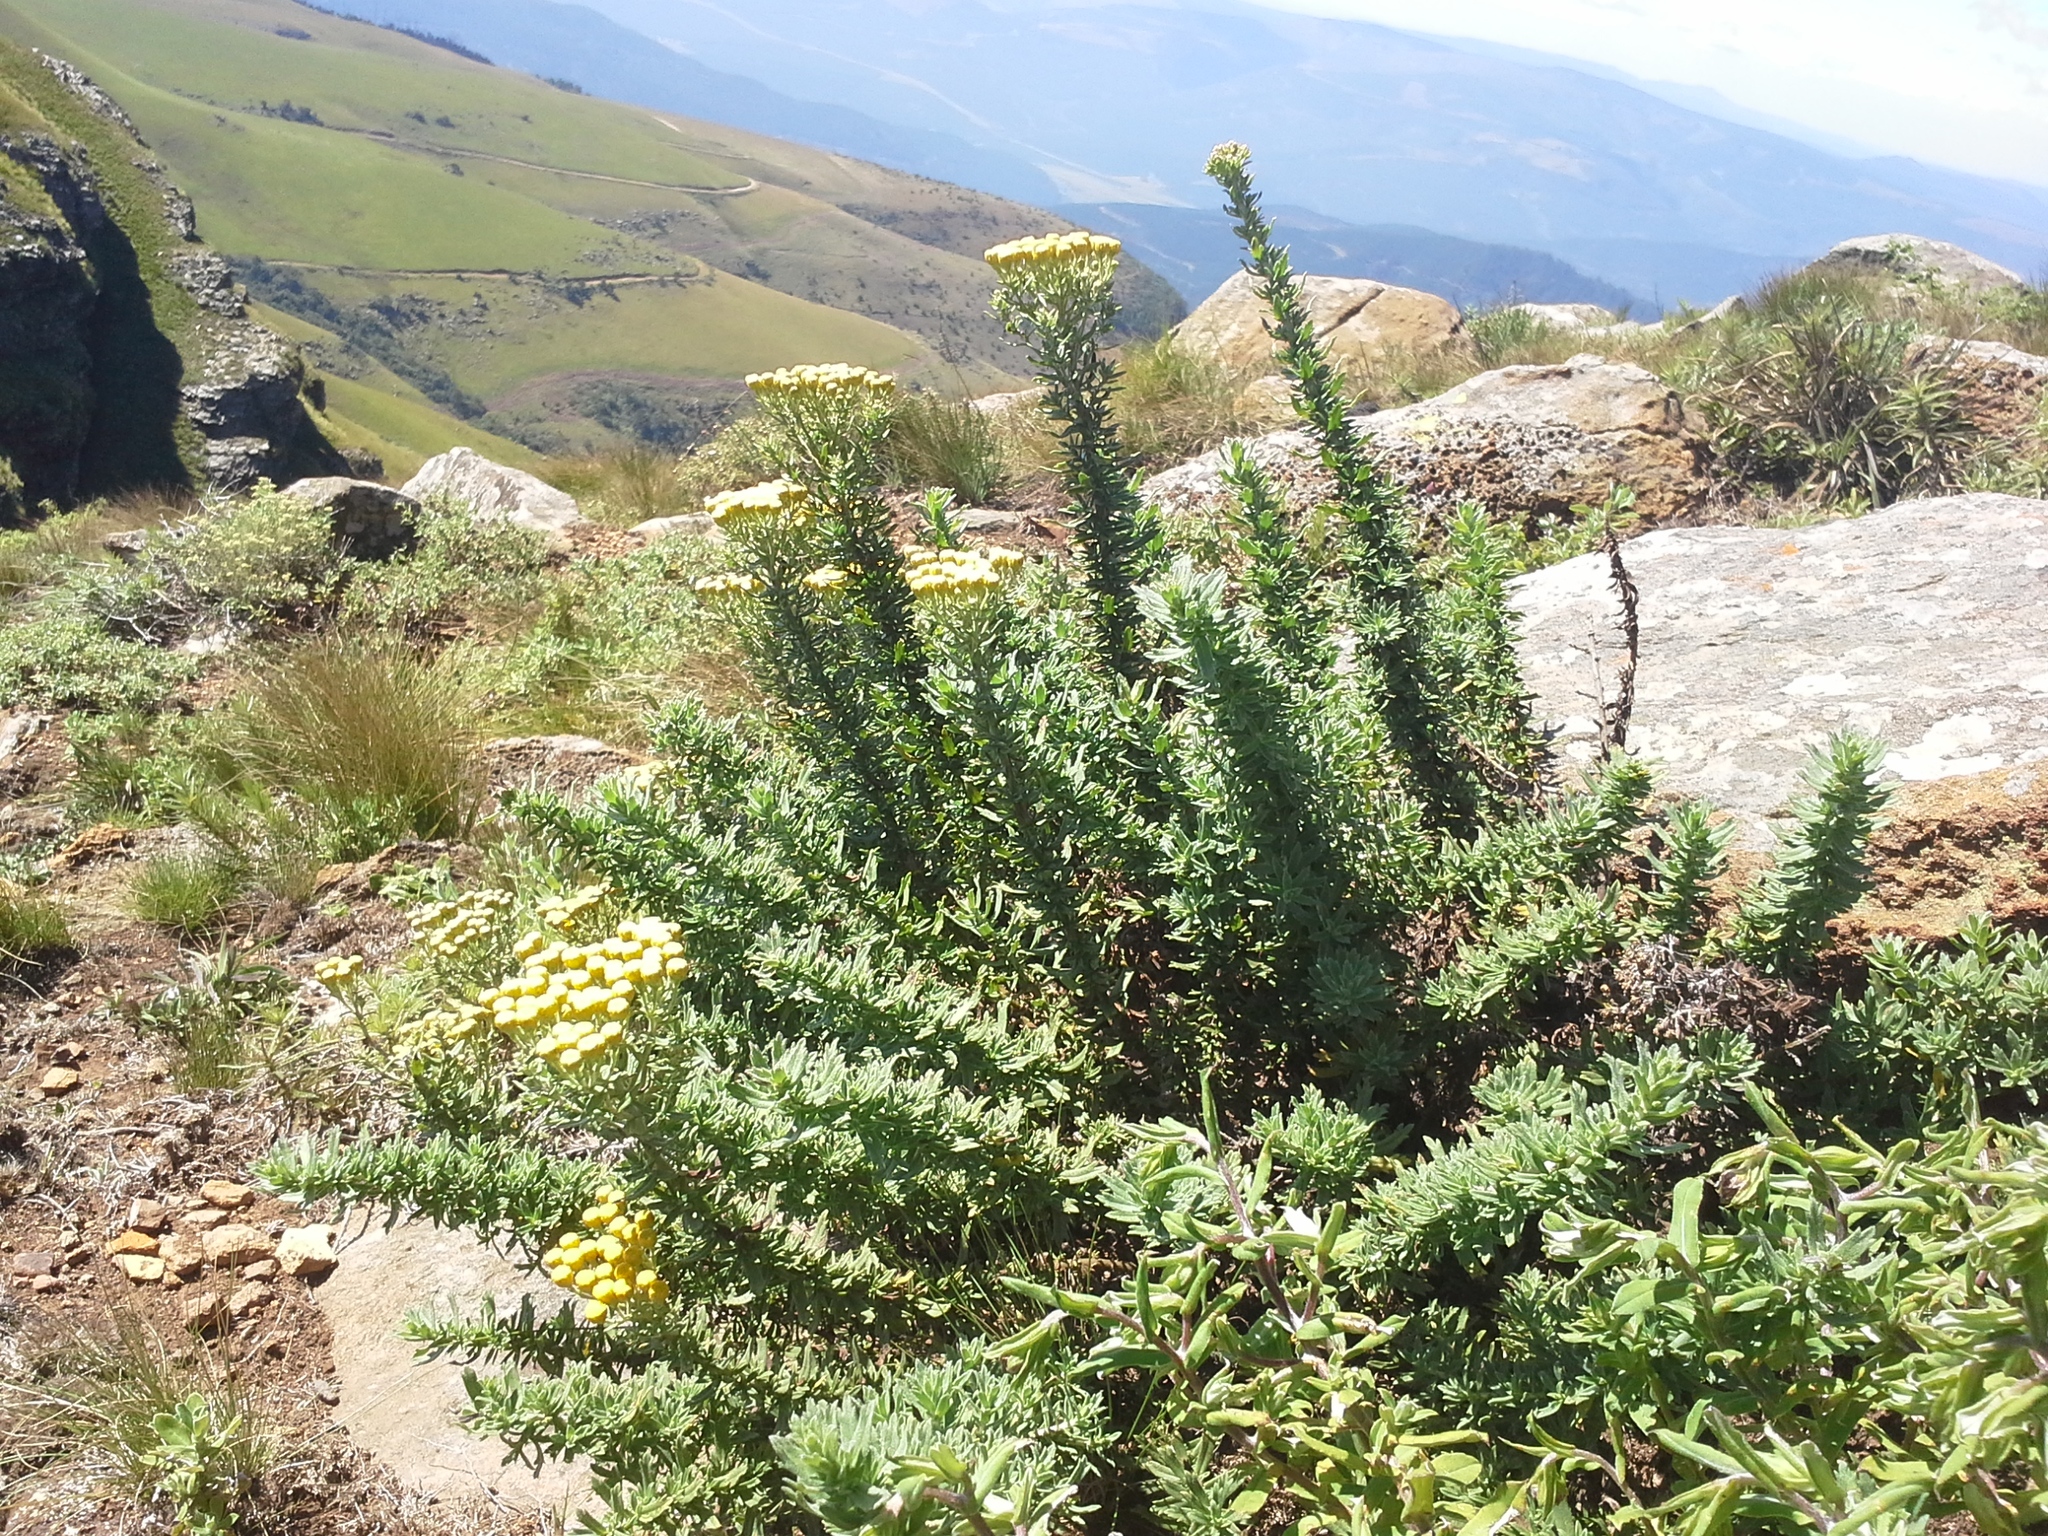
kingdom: Plantae
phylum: Tracheophyta
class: Magnoliopsida
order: Asterales
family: Asteraceae
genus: Schistostephium
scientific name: Schistostephium crataegifolium
